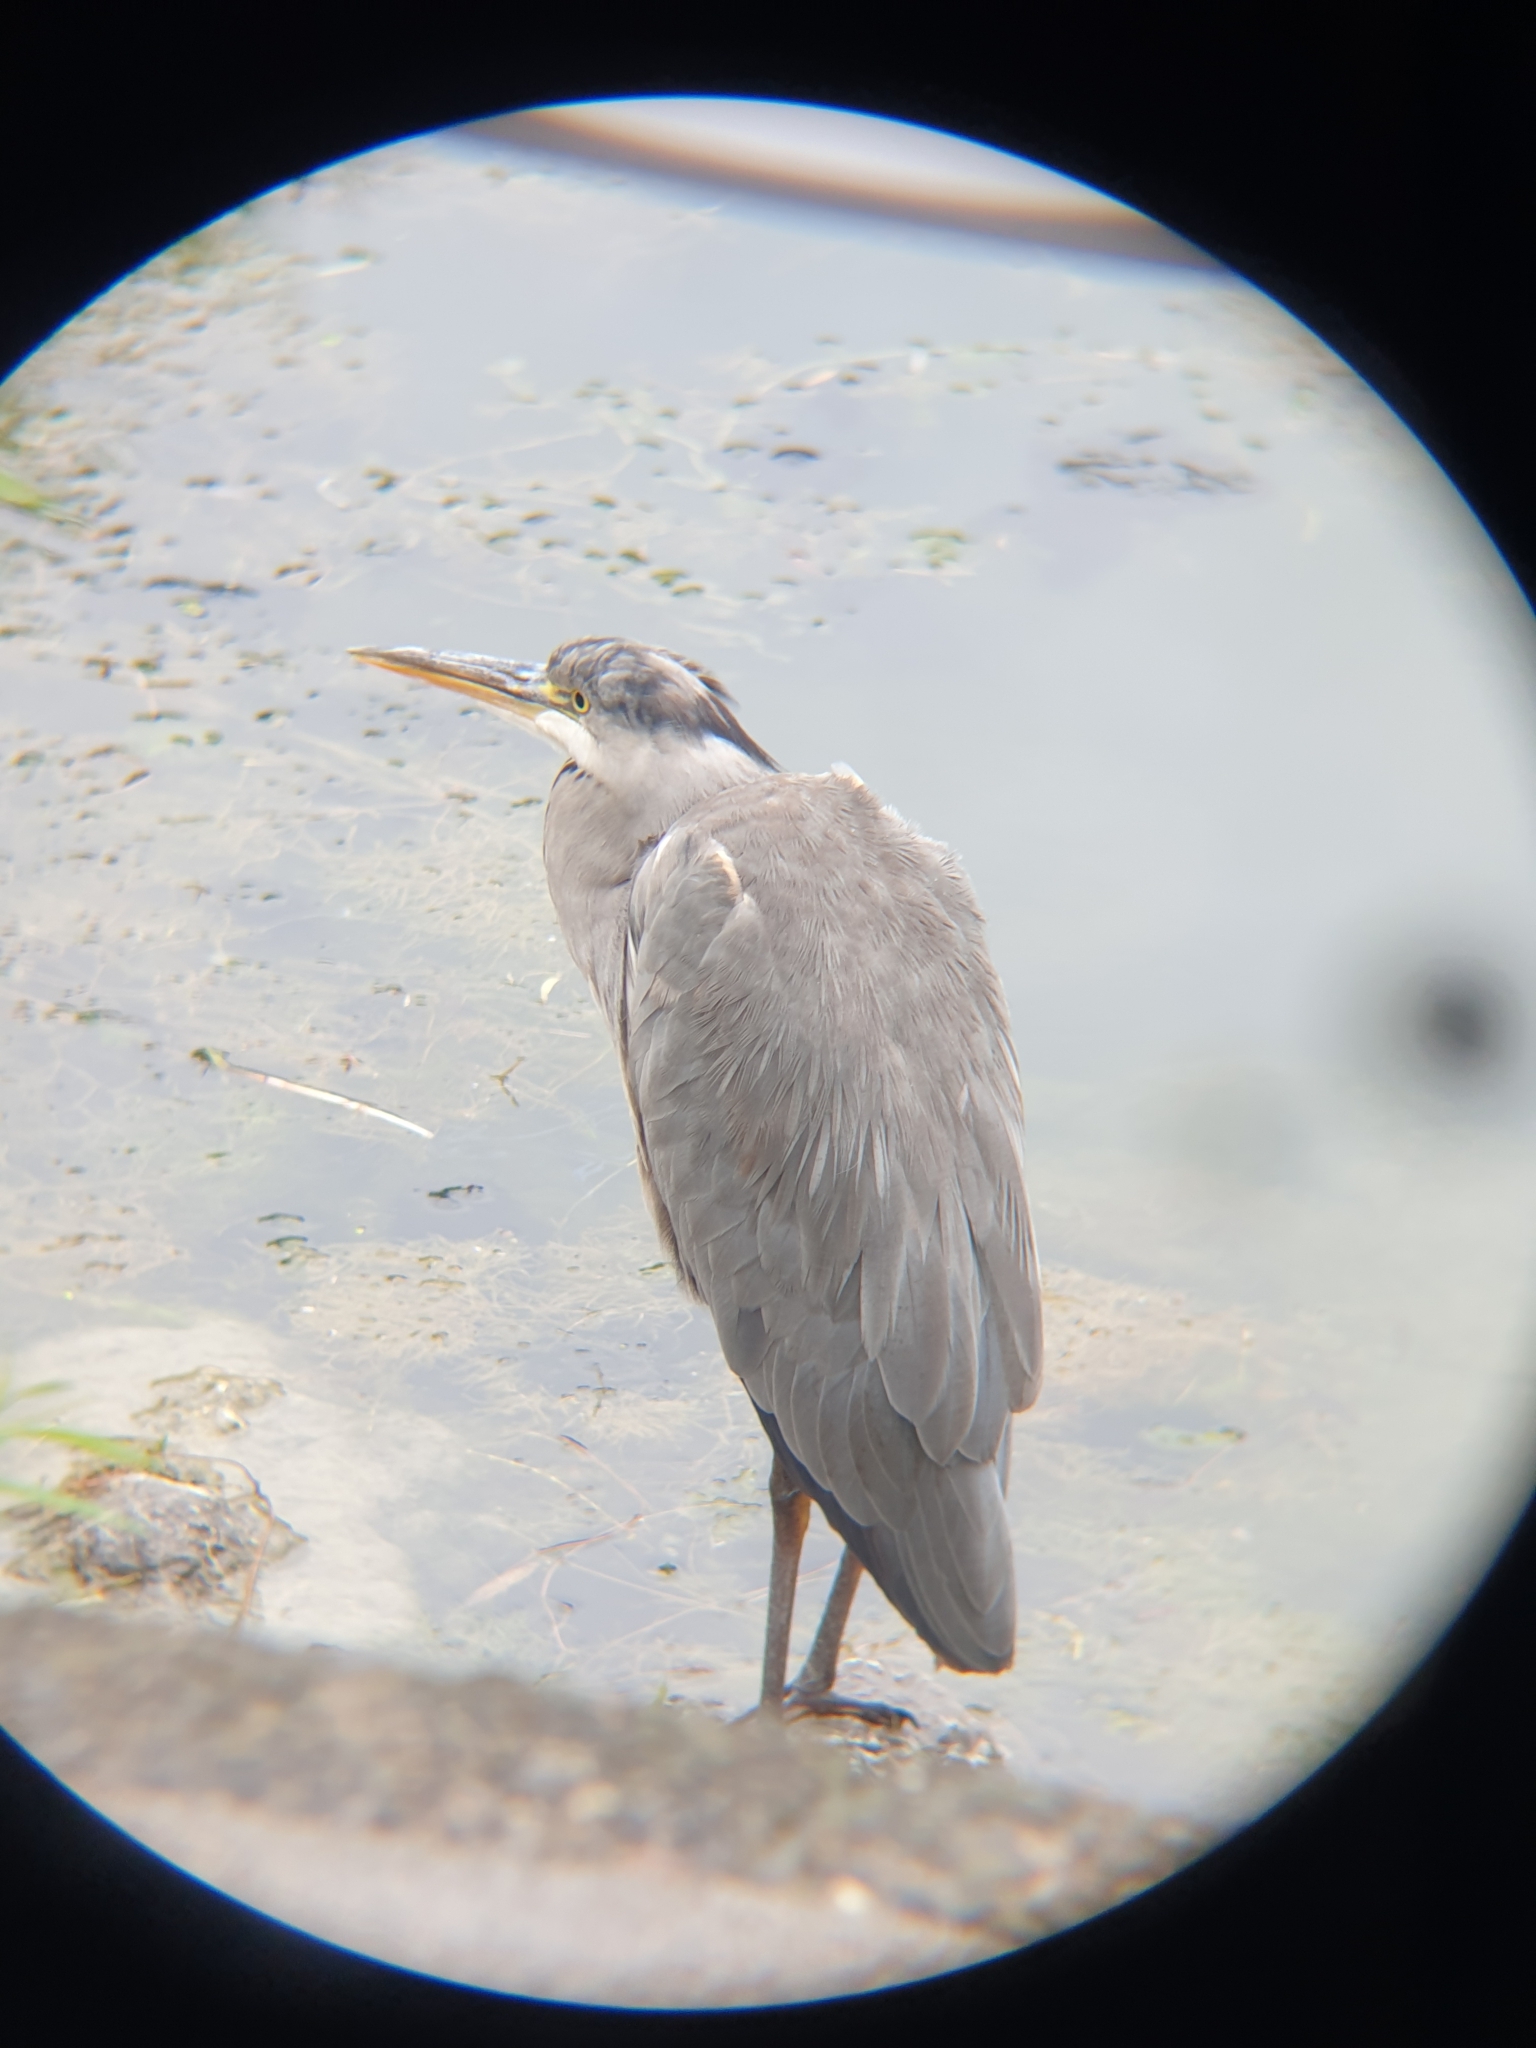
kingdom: Animalia
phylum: Chordata
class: Aves
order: Pelecaniformes
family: Ardeidae
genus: Ardea
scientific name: Ardea cinerea
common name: Grey heron
